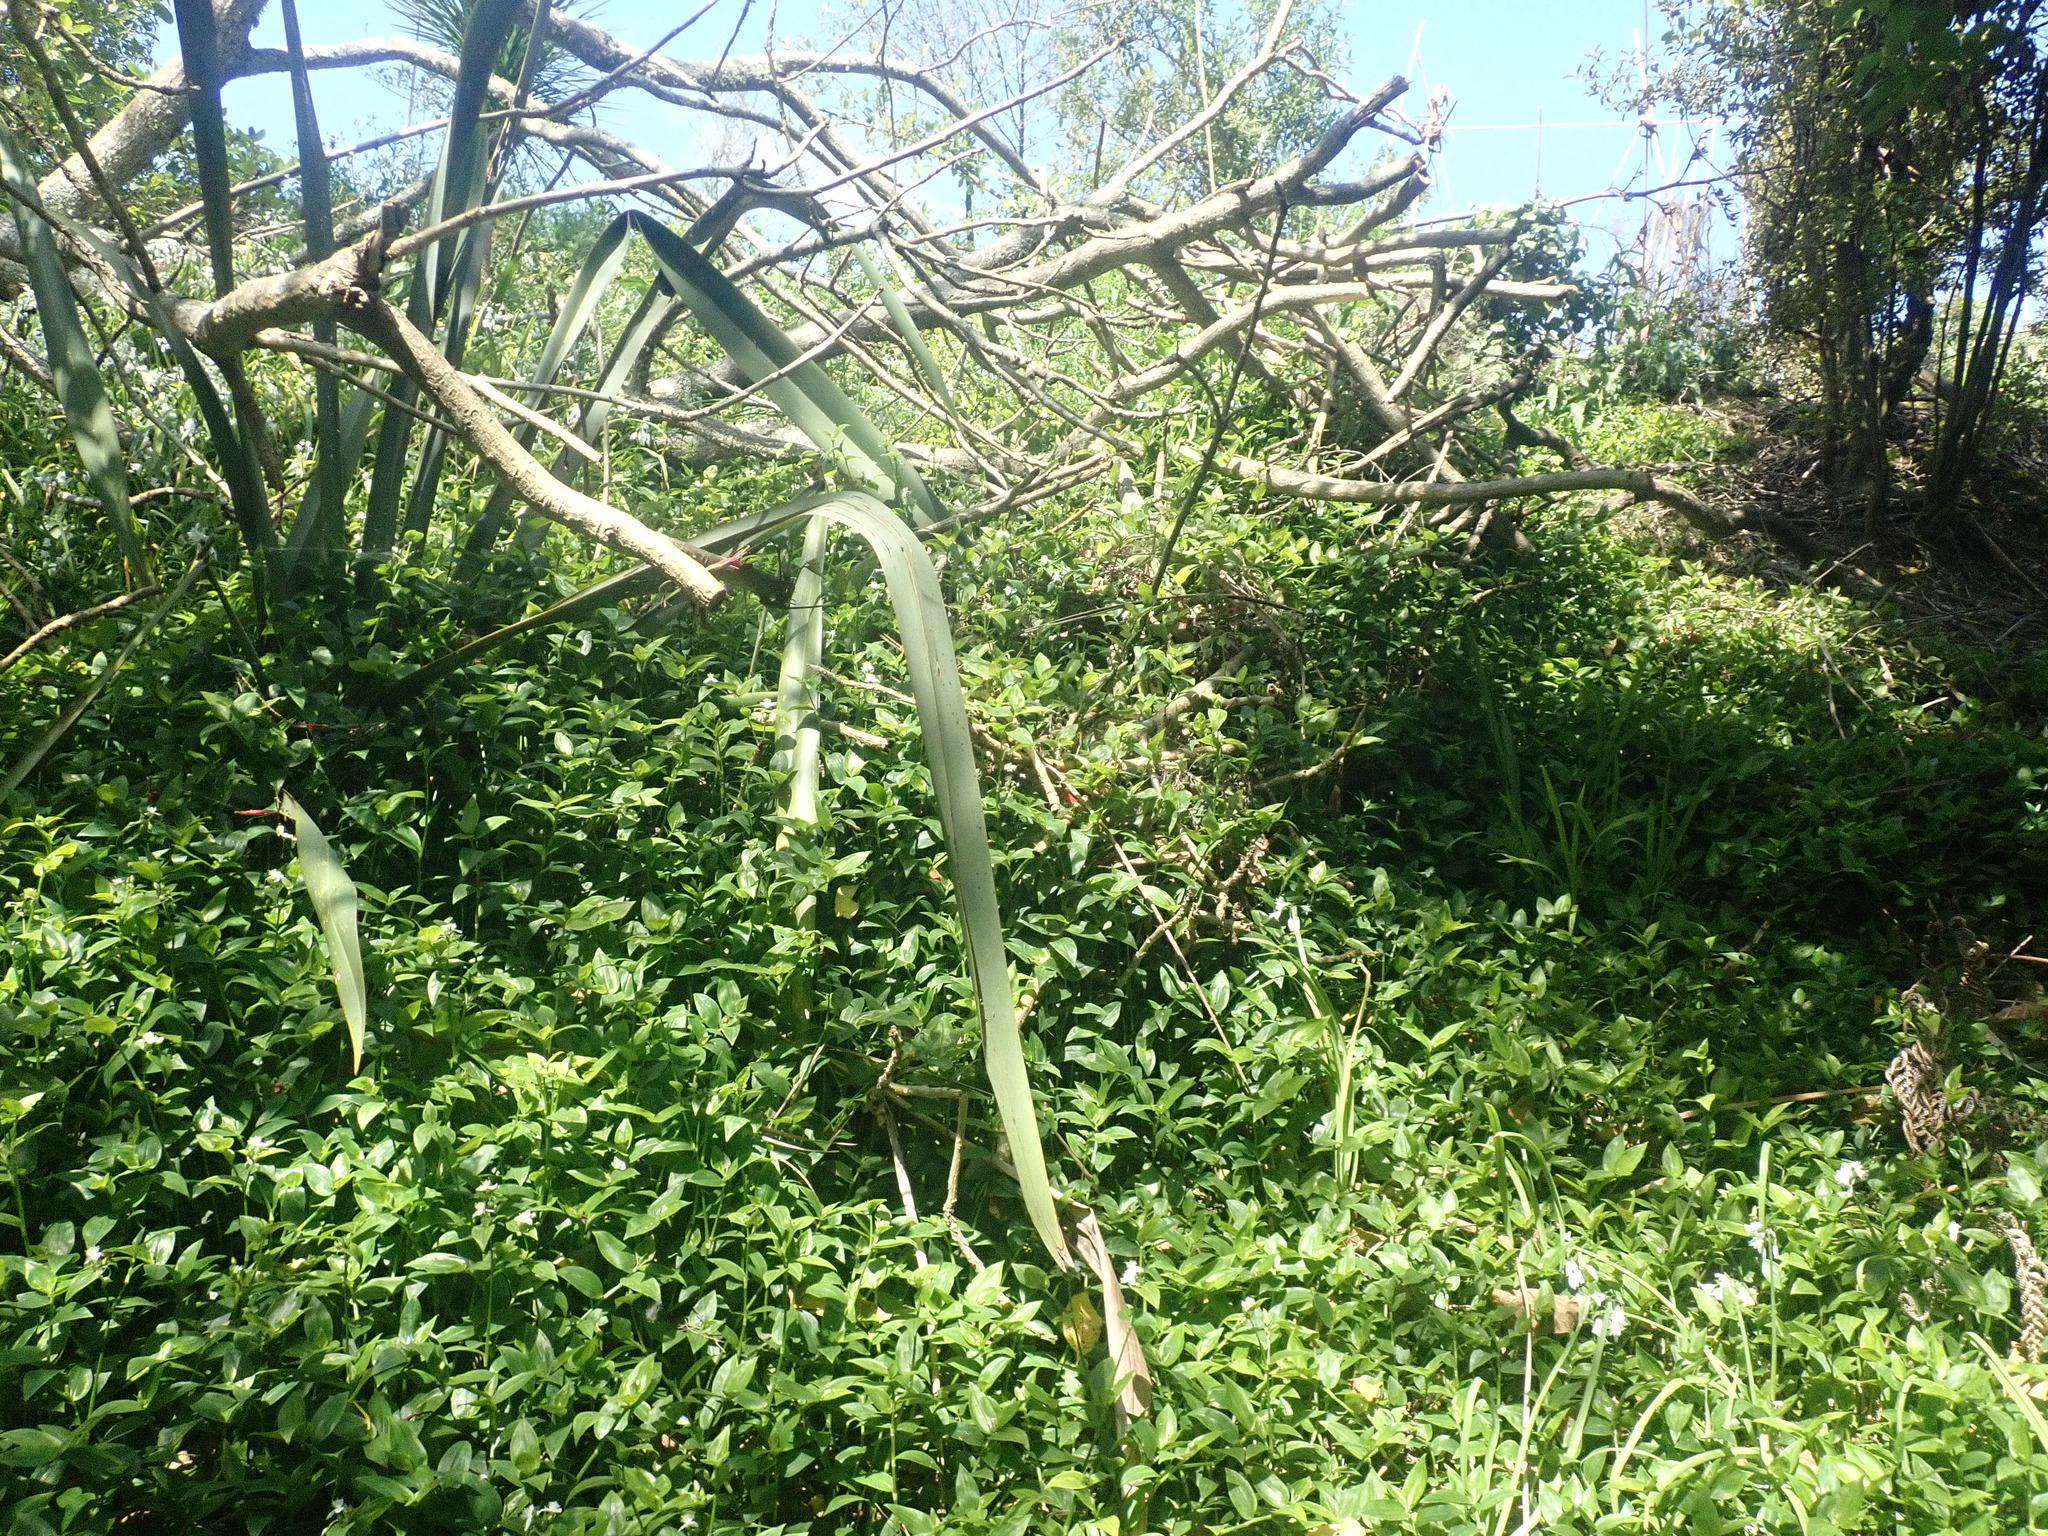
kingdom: Plantae
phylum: Tracheophyta
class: Liliopsida
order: Asparagales
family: Asphodelaceae
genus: Phormium
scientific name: Phormium tenax
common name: New zealand flax
